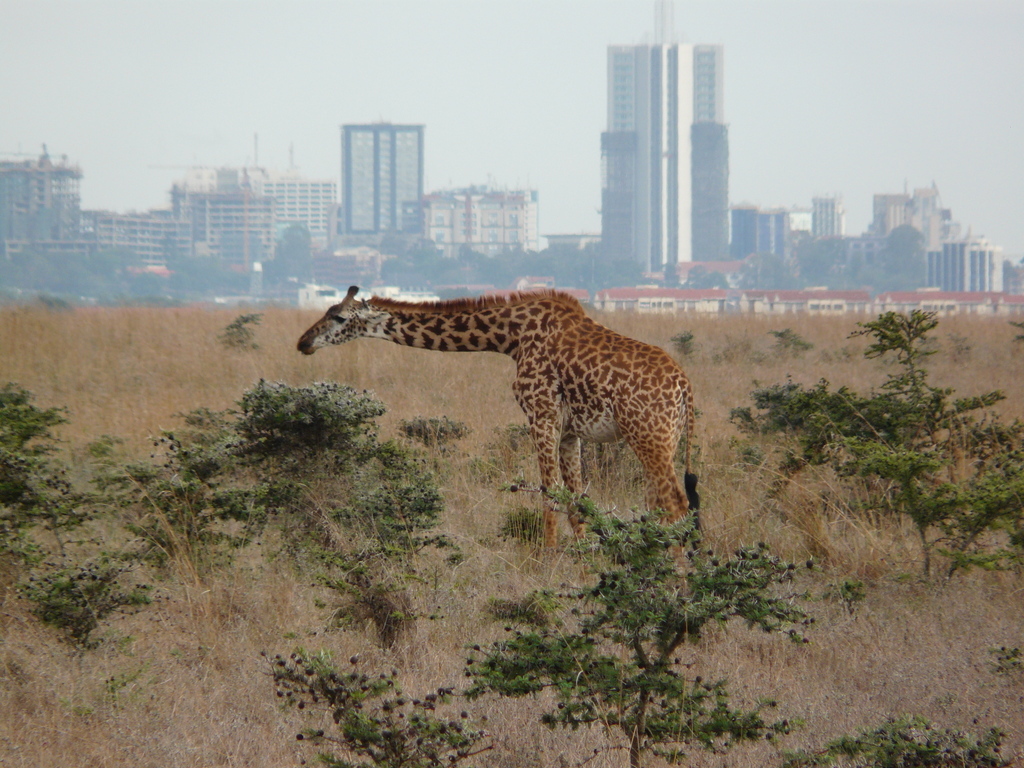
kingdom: Animalia
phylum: Chordata
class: Mammalia
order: Artiodactyla
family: Giraffidae
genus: Giraffa
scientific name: Giraffa tippelskirchi
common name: Masai giraffe
